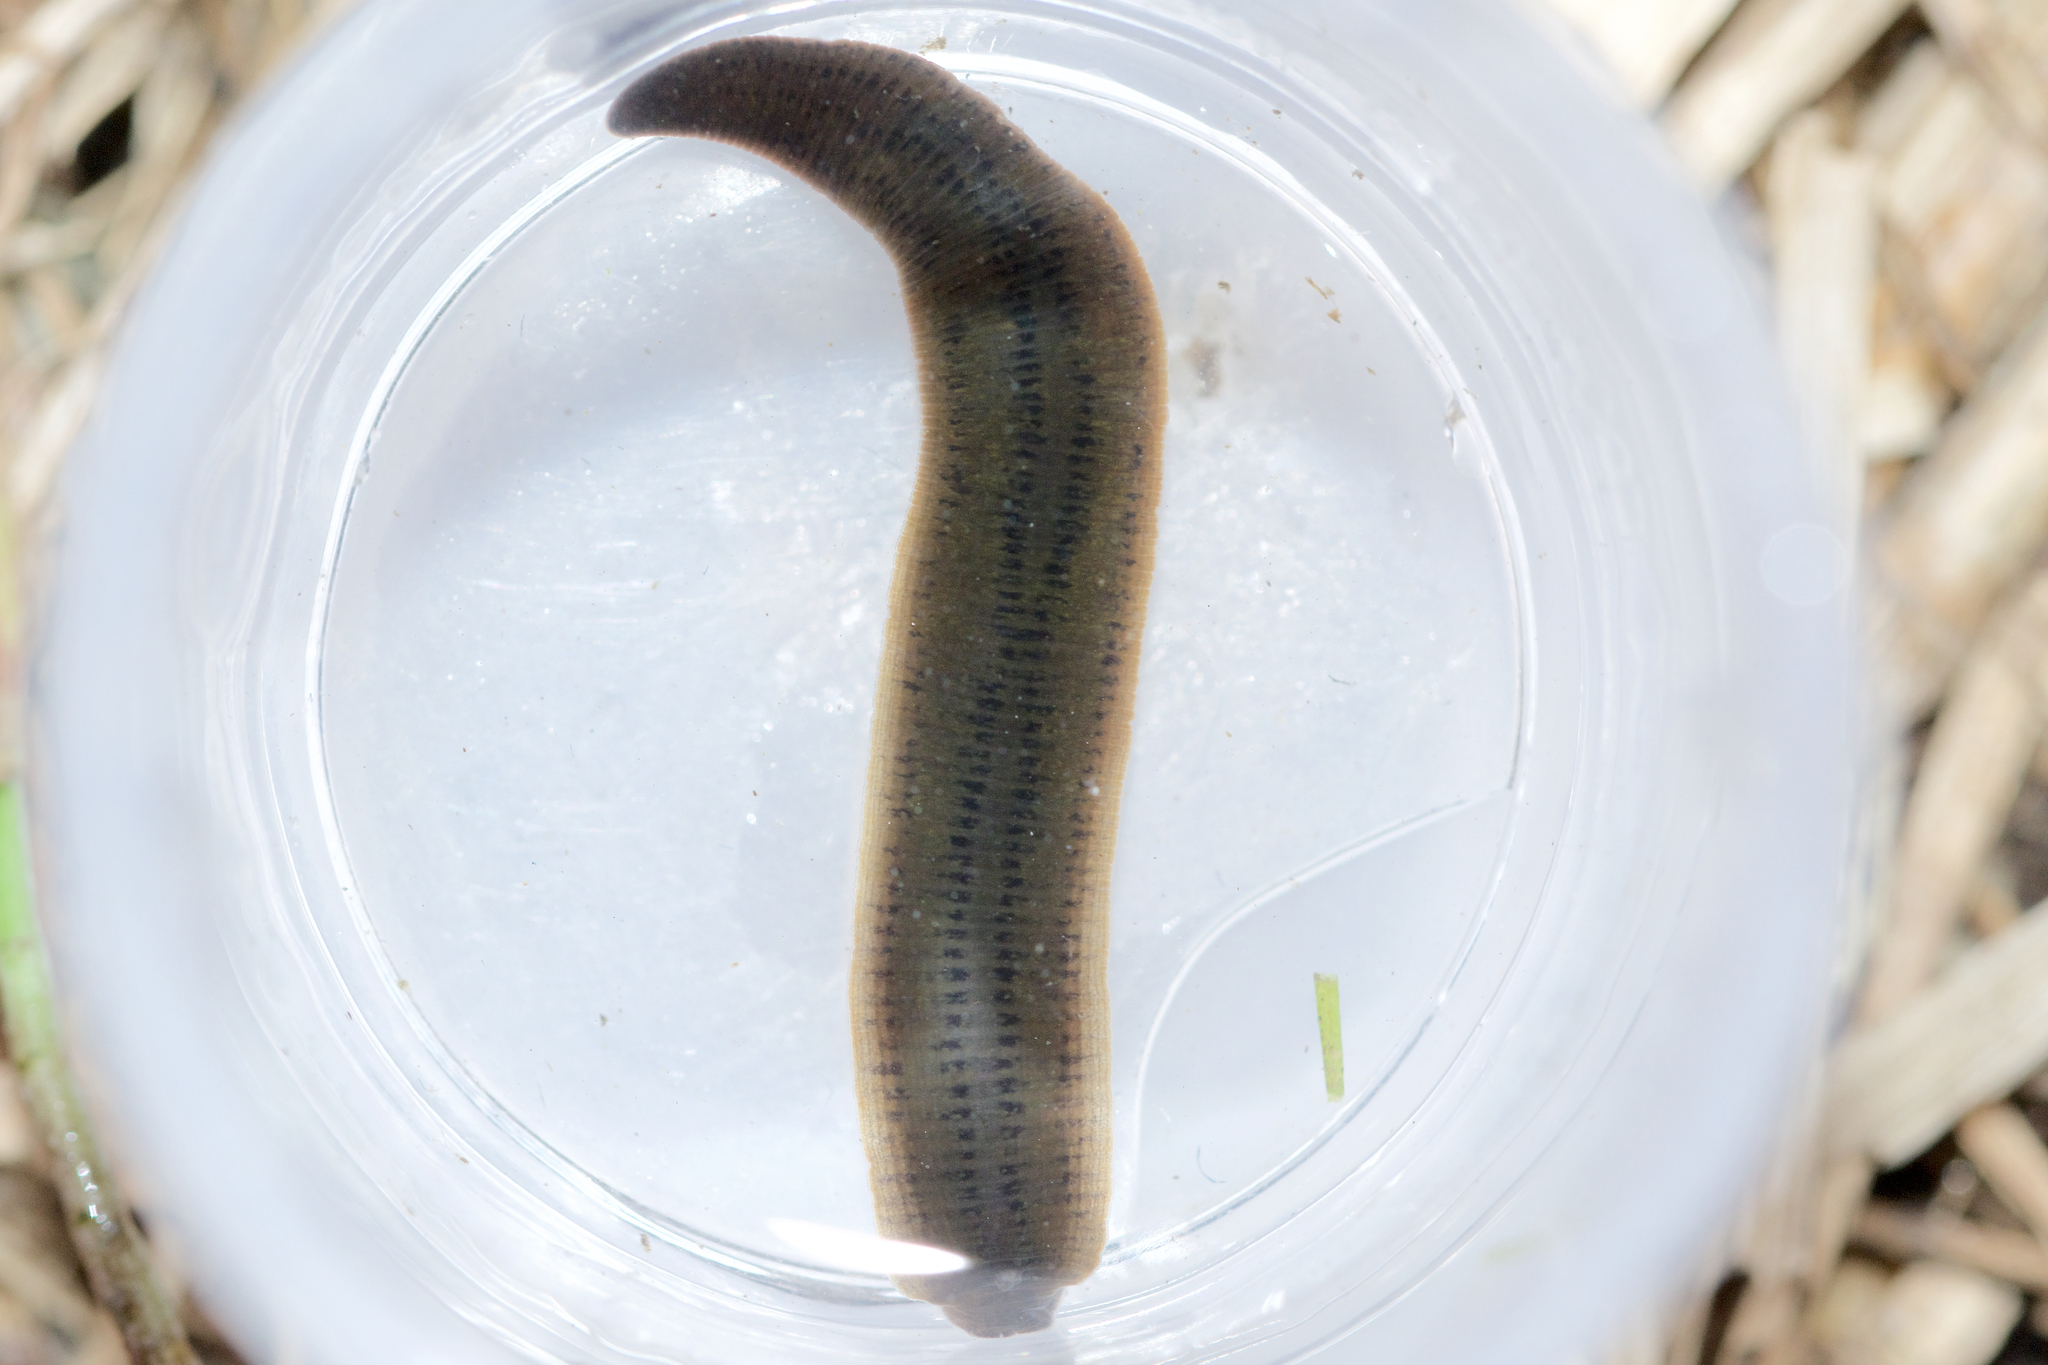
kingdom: Animalia
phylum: Annelida
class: Clitellata
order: Arhynchobdellida
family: Erpobdellidae
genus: Erpobdella
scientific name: Erpobdella punctata
